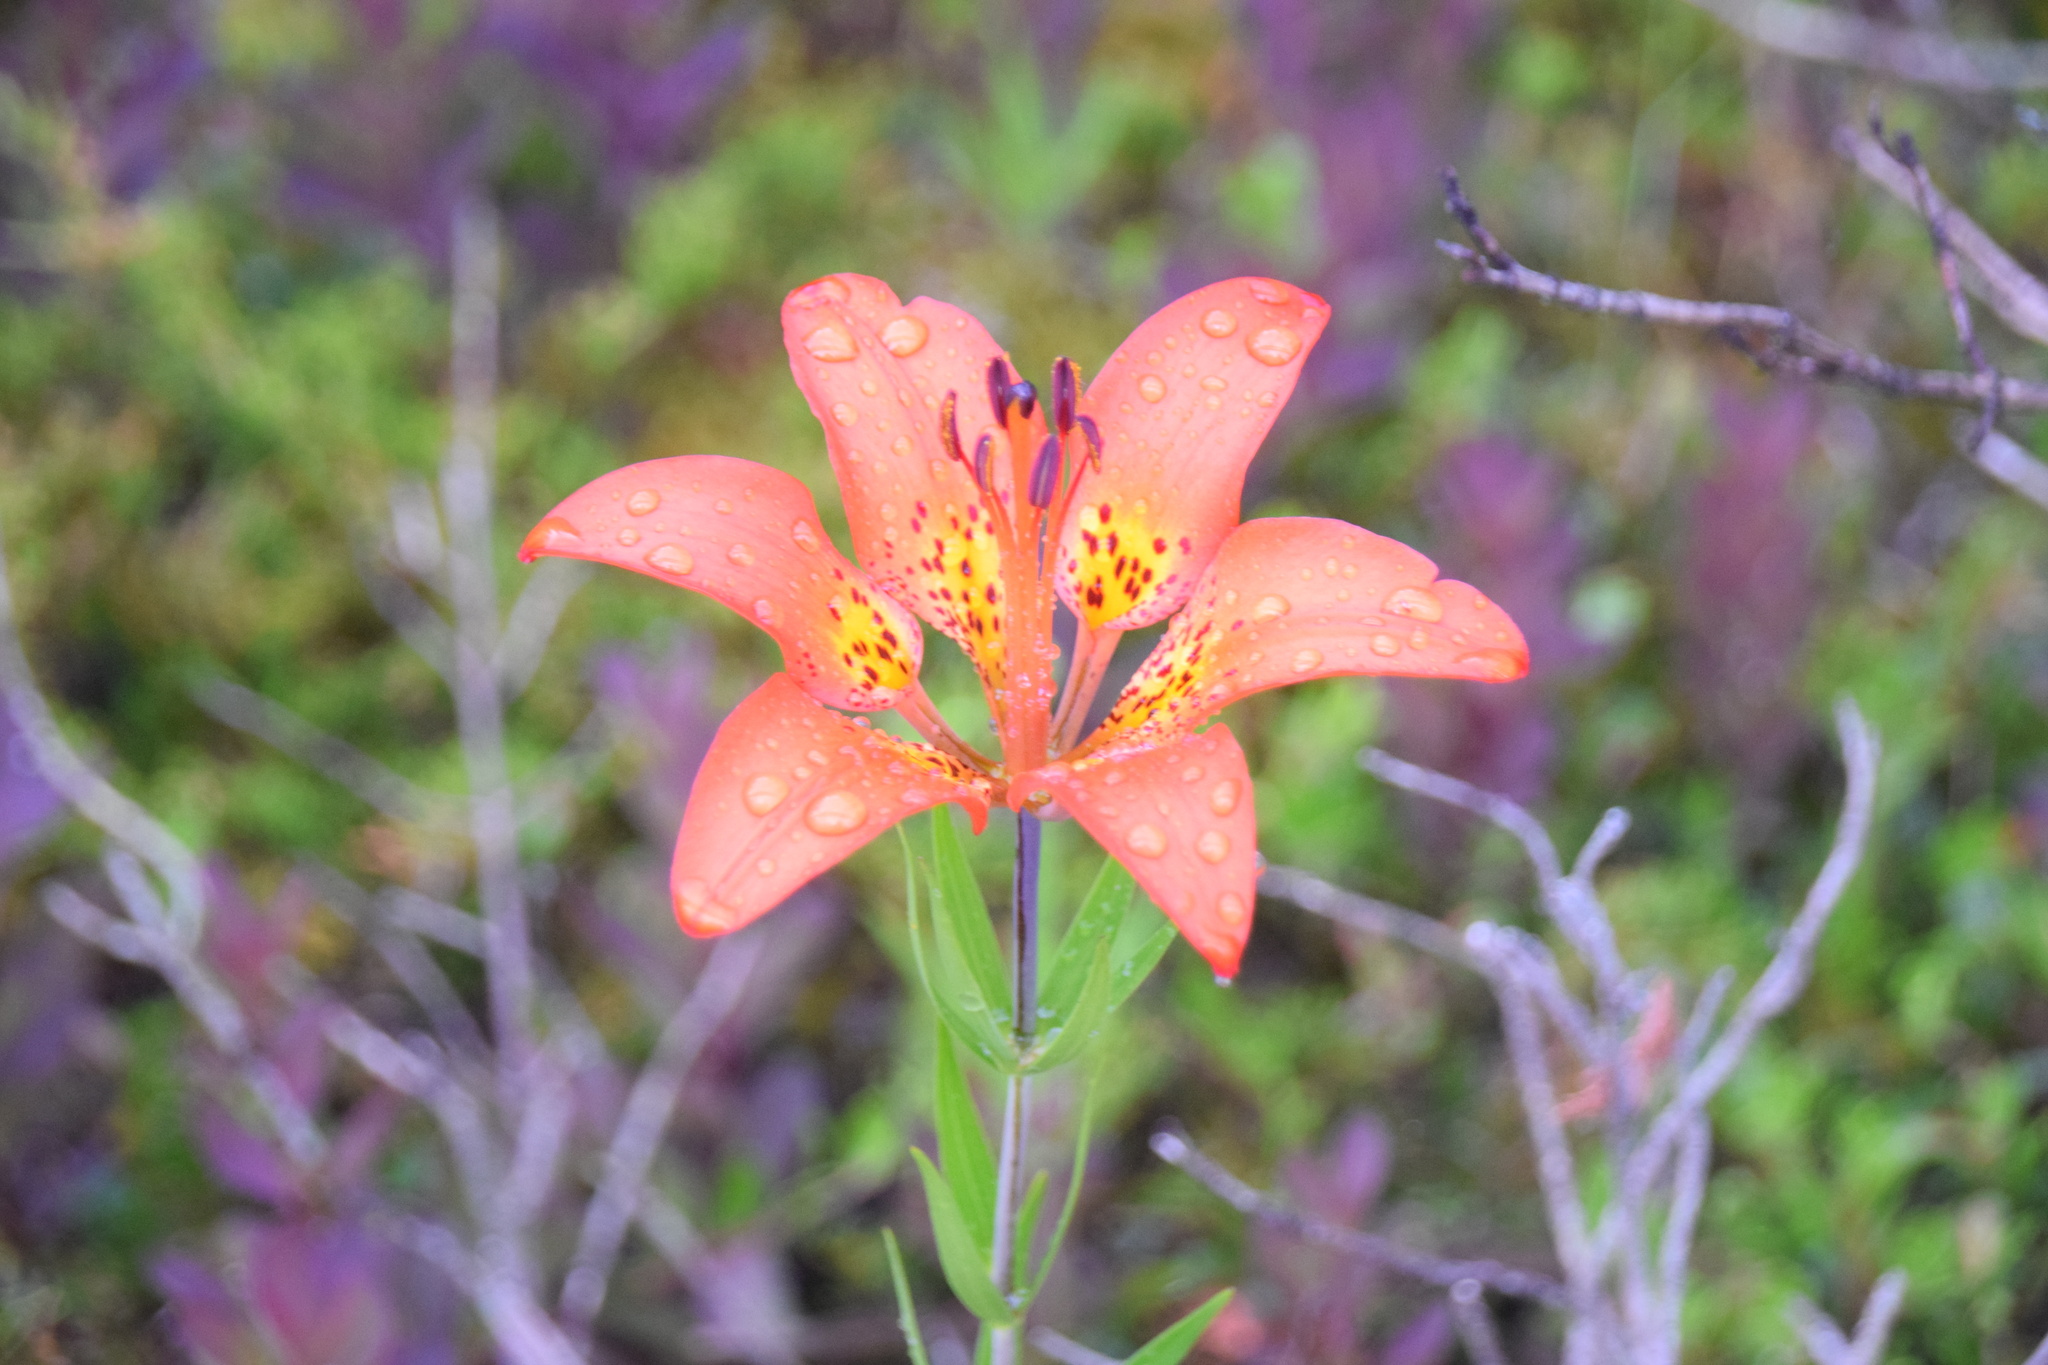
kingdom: Plantae
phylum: Tracheophyta
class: Liliopsida
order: Liliales
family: Liliaceae
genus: Lilium
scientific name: Lilium philadelphicum
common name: Red lily
